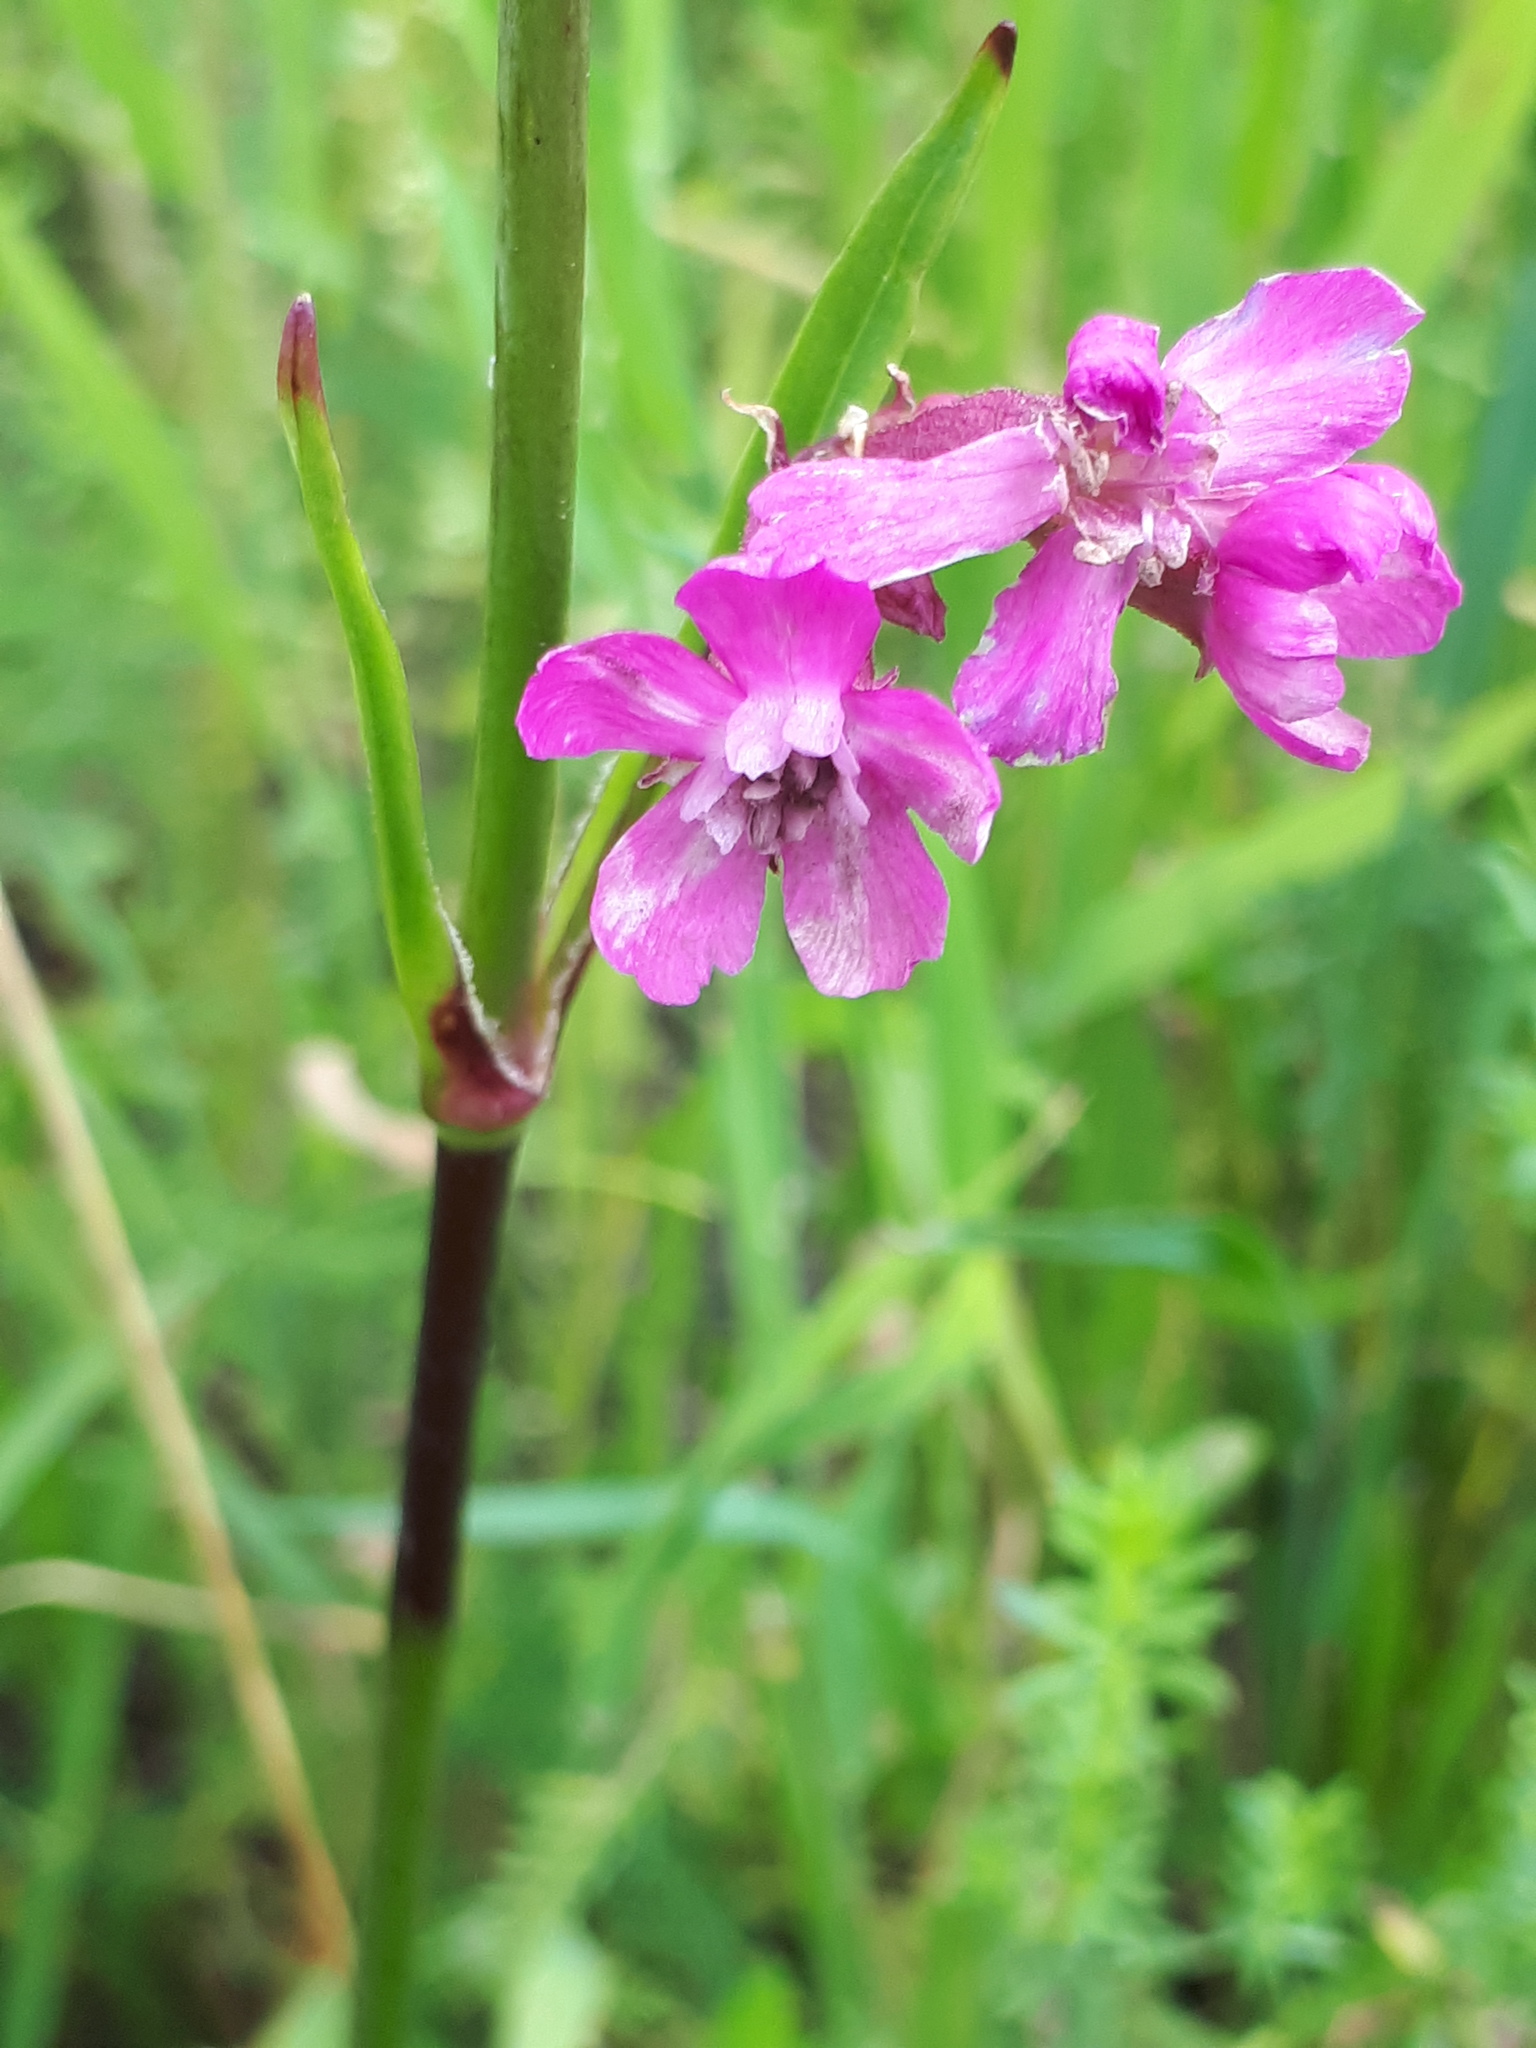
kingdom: Plantae
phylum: Tracheophyta
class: Magnoliopsida
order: Caryophyllales
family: Caryophyllaceae
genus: Viscaria
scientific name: Viscaria vulgaris
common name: Clammy campion
